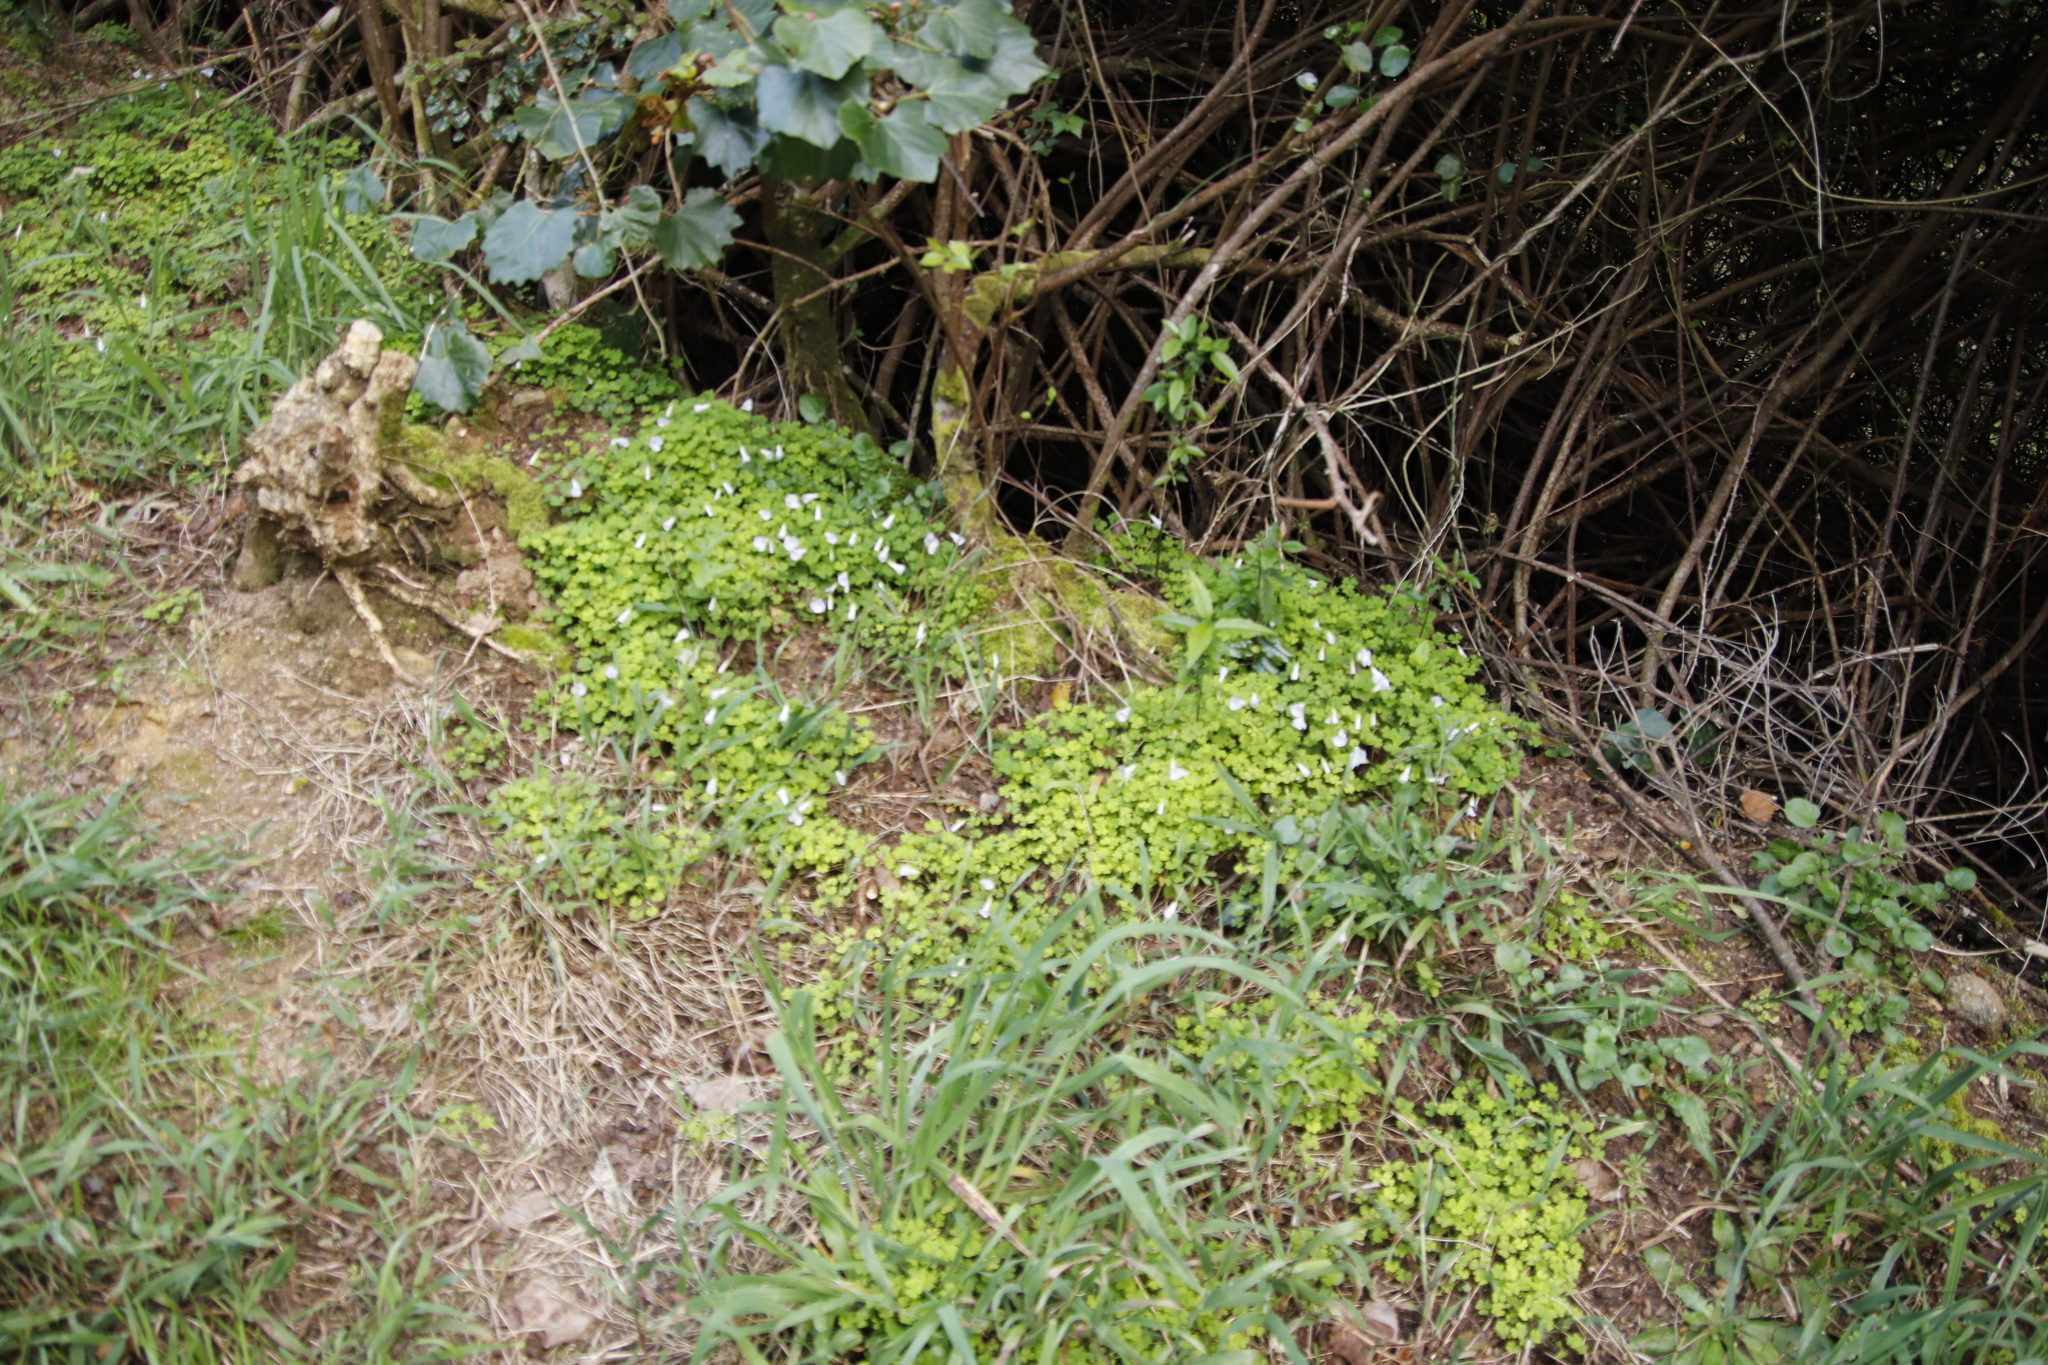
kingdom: Plantae
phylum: Tracheophyta
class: Magnoliopsida
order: Oxalidales
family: Oxalidaceae
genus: Oxalis
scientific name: Oxalis incarnata
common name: Pale pink-sorrel
